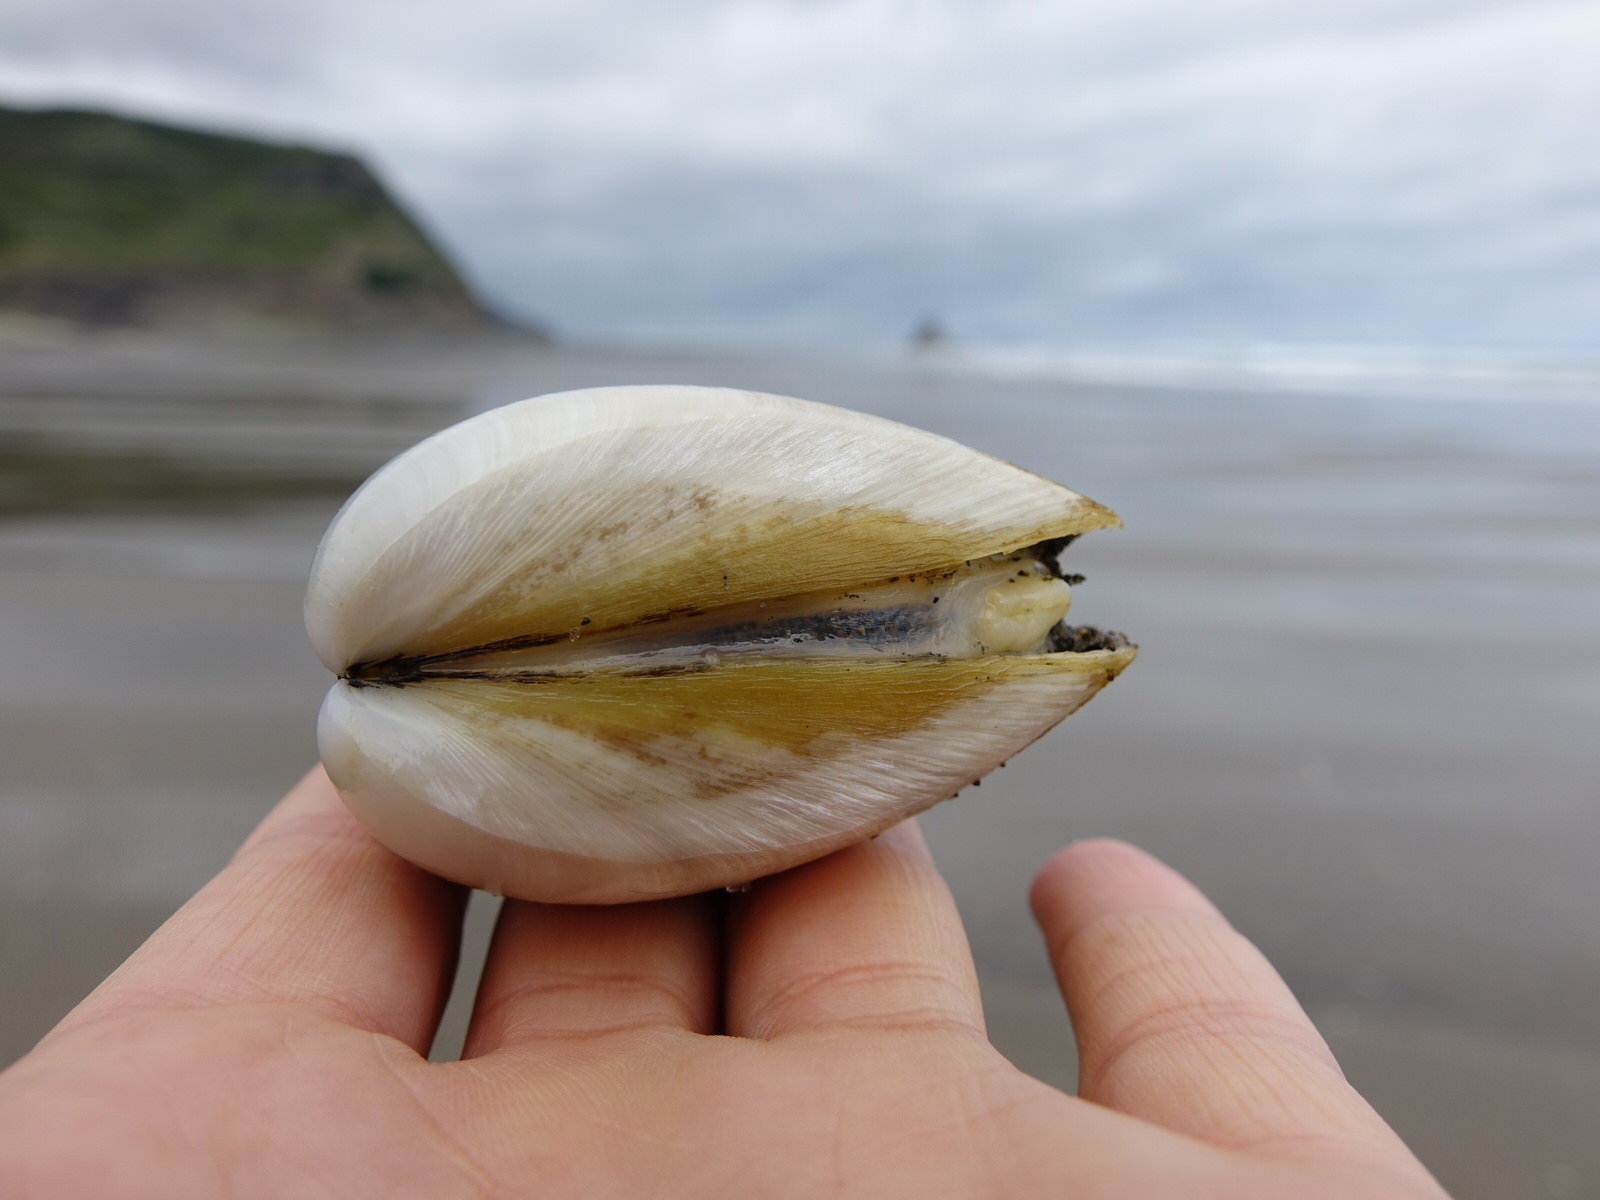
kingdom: Animalia
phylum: Mollusca
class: Bivalvia
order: Venerida
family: Mactridae
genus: Spisula
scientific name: Spisula murchisoni
